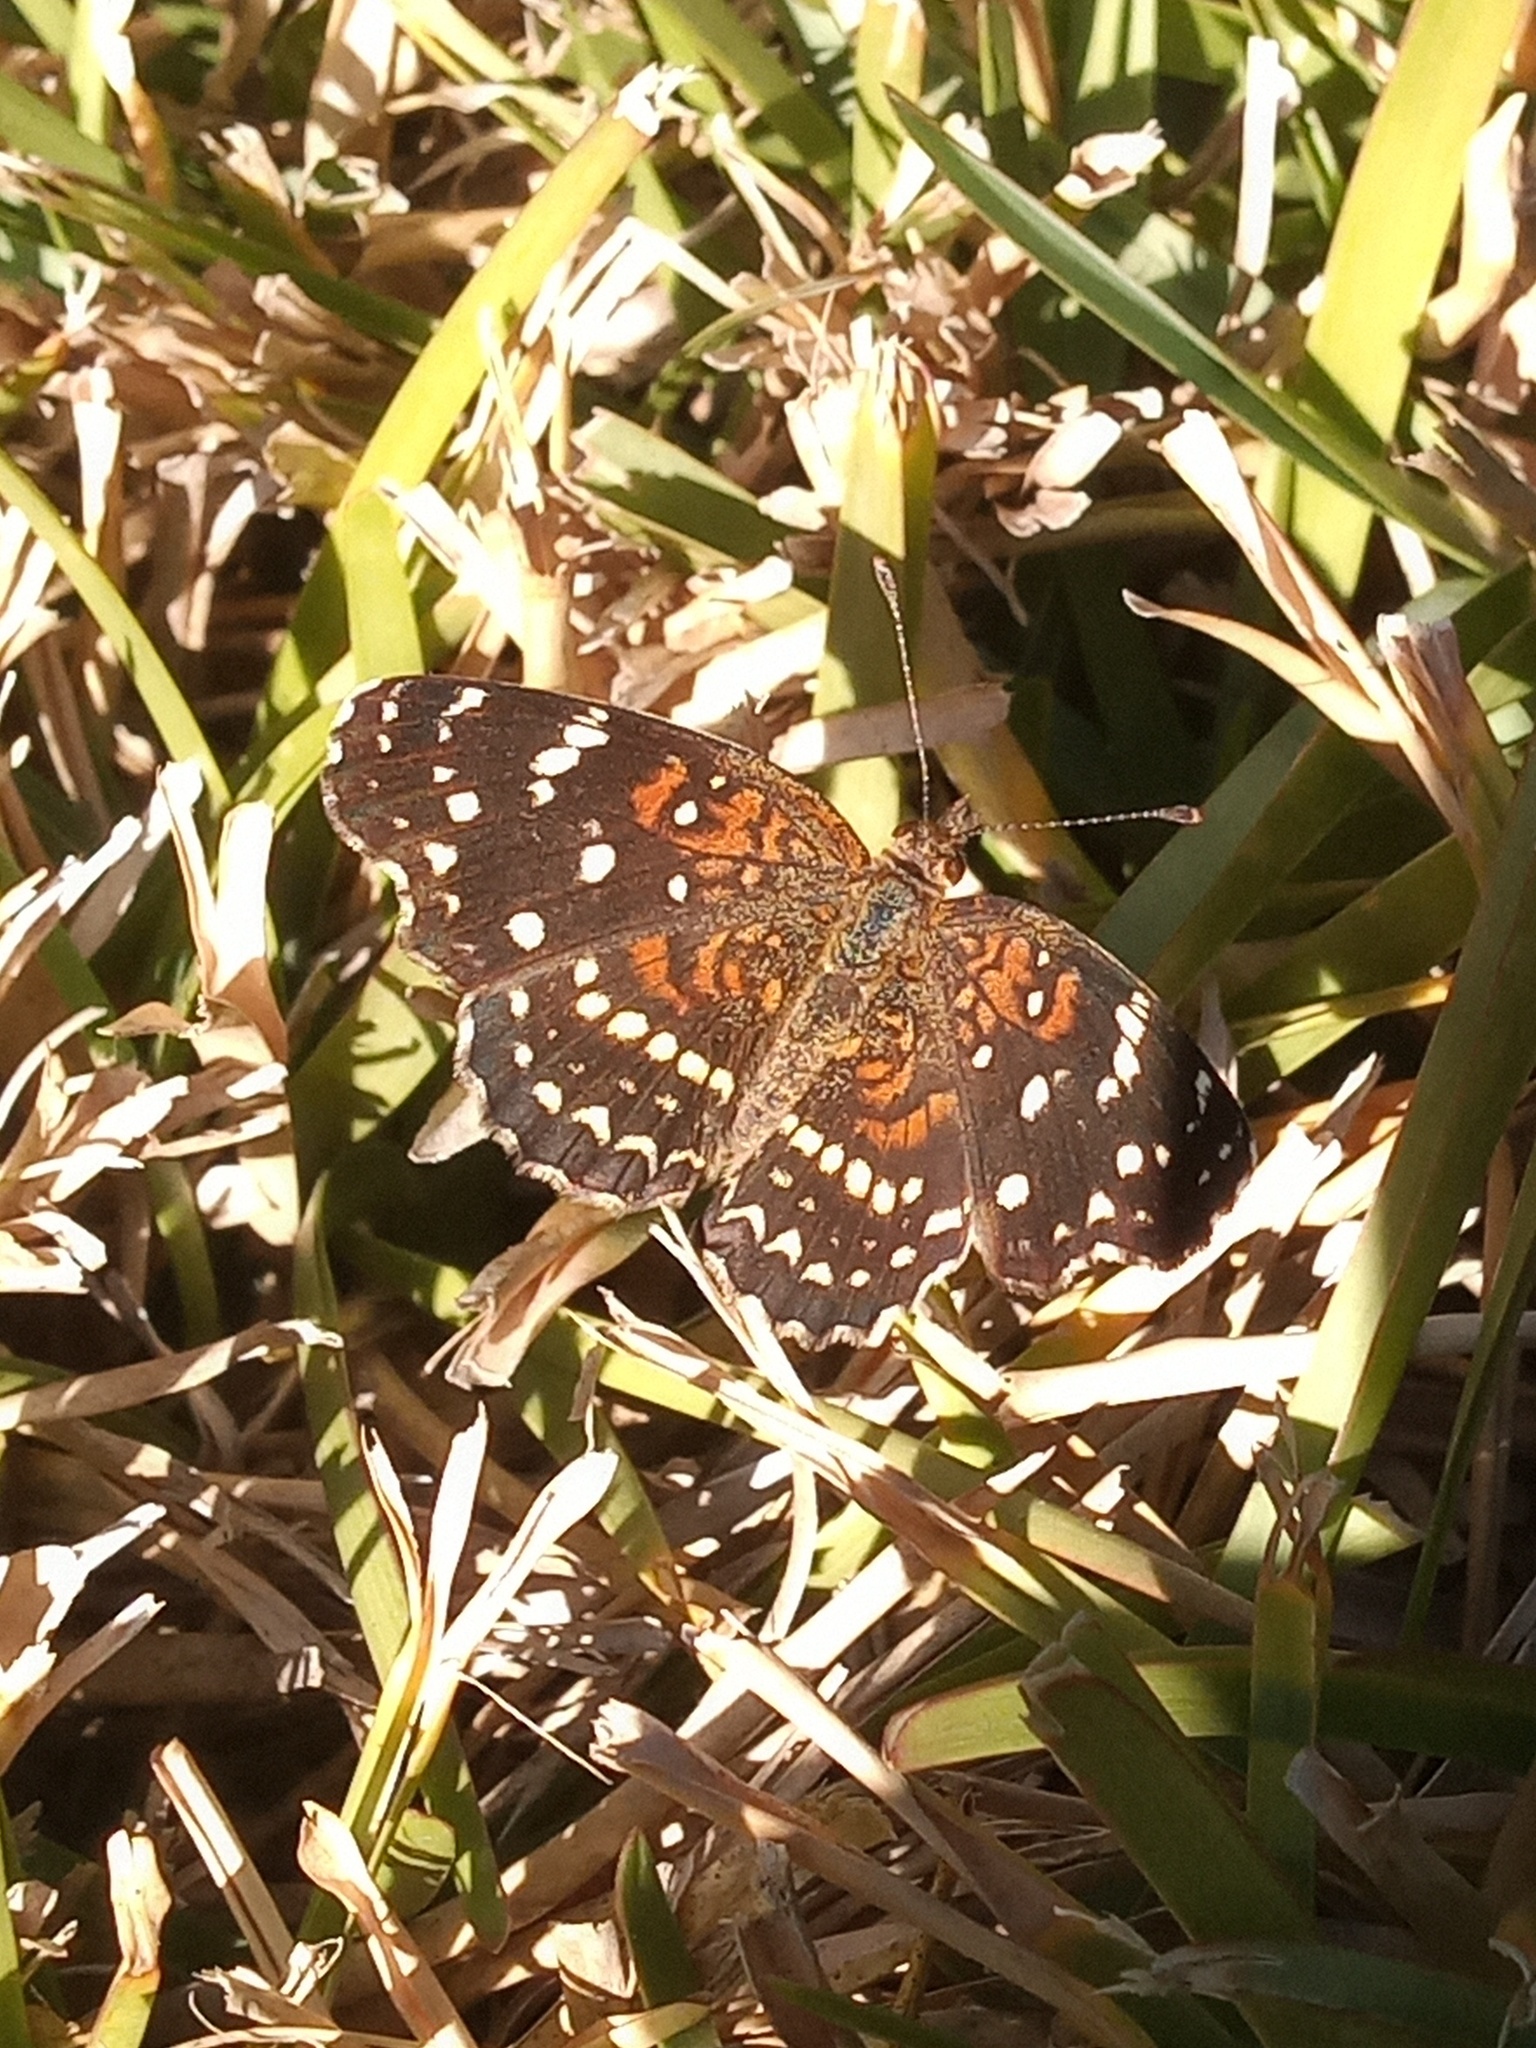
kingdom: Animalia
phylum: Arthropoda
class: Insecta
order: Lepidoptera
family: Nymphalidae
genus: Anthanassa
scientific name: Anthanassa texana
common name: Texan crescent
